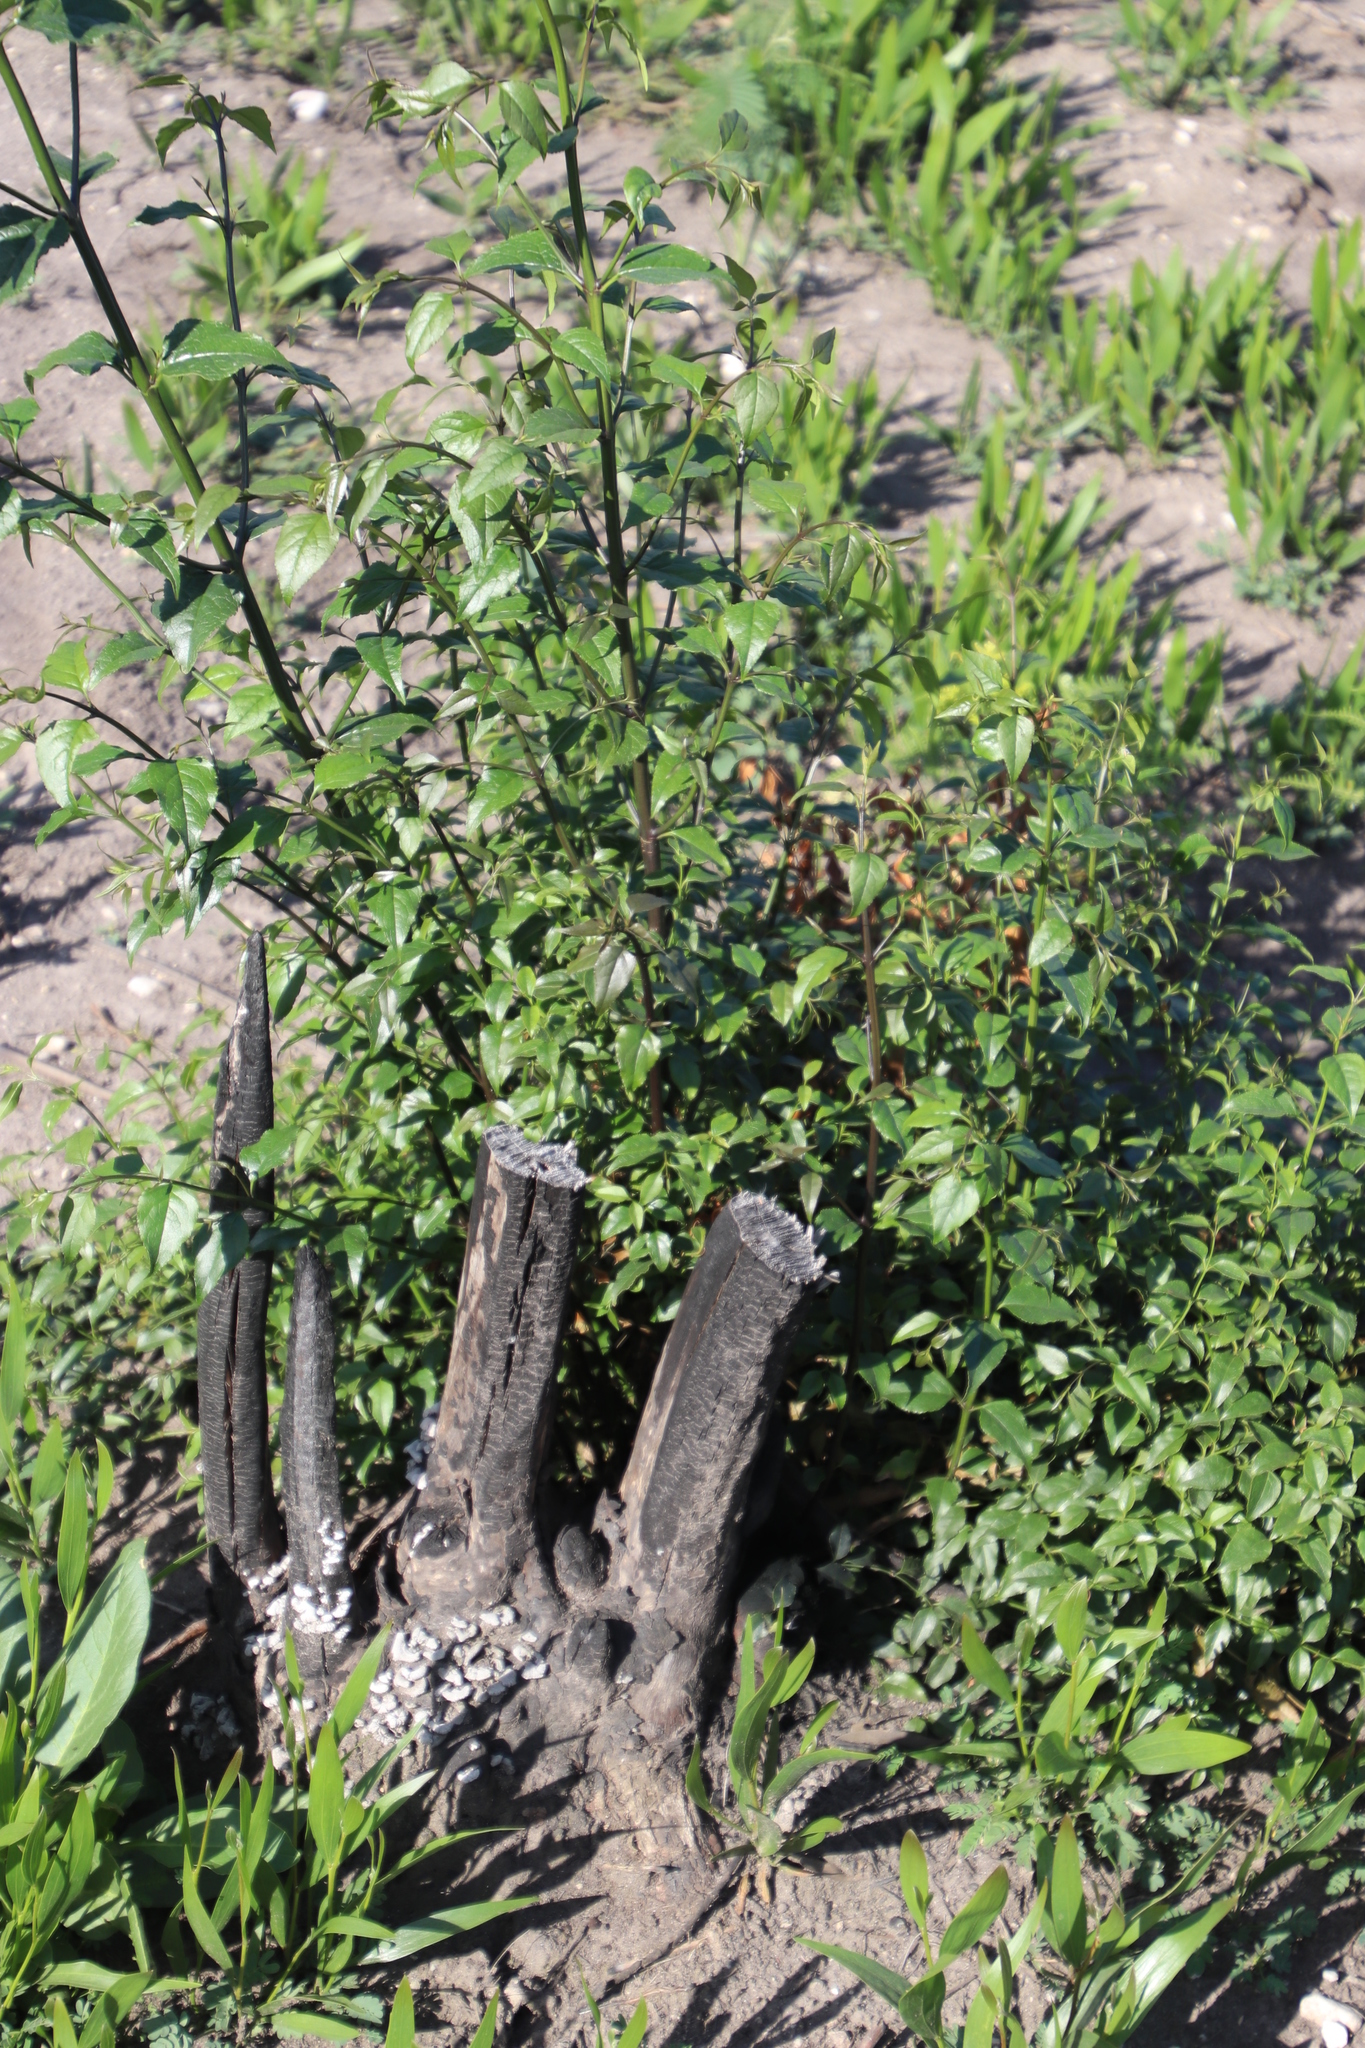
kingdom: Plantae
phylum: Tracheophyta
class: Magnoliopsida
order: Lamiales
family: Stilbaceae
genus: Halleria
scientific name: Halleria lucida
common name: Tree fuschia
